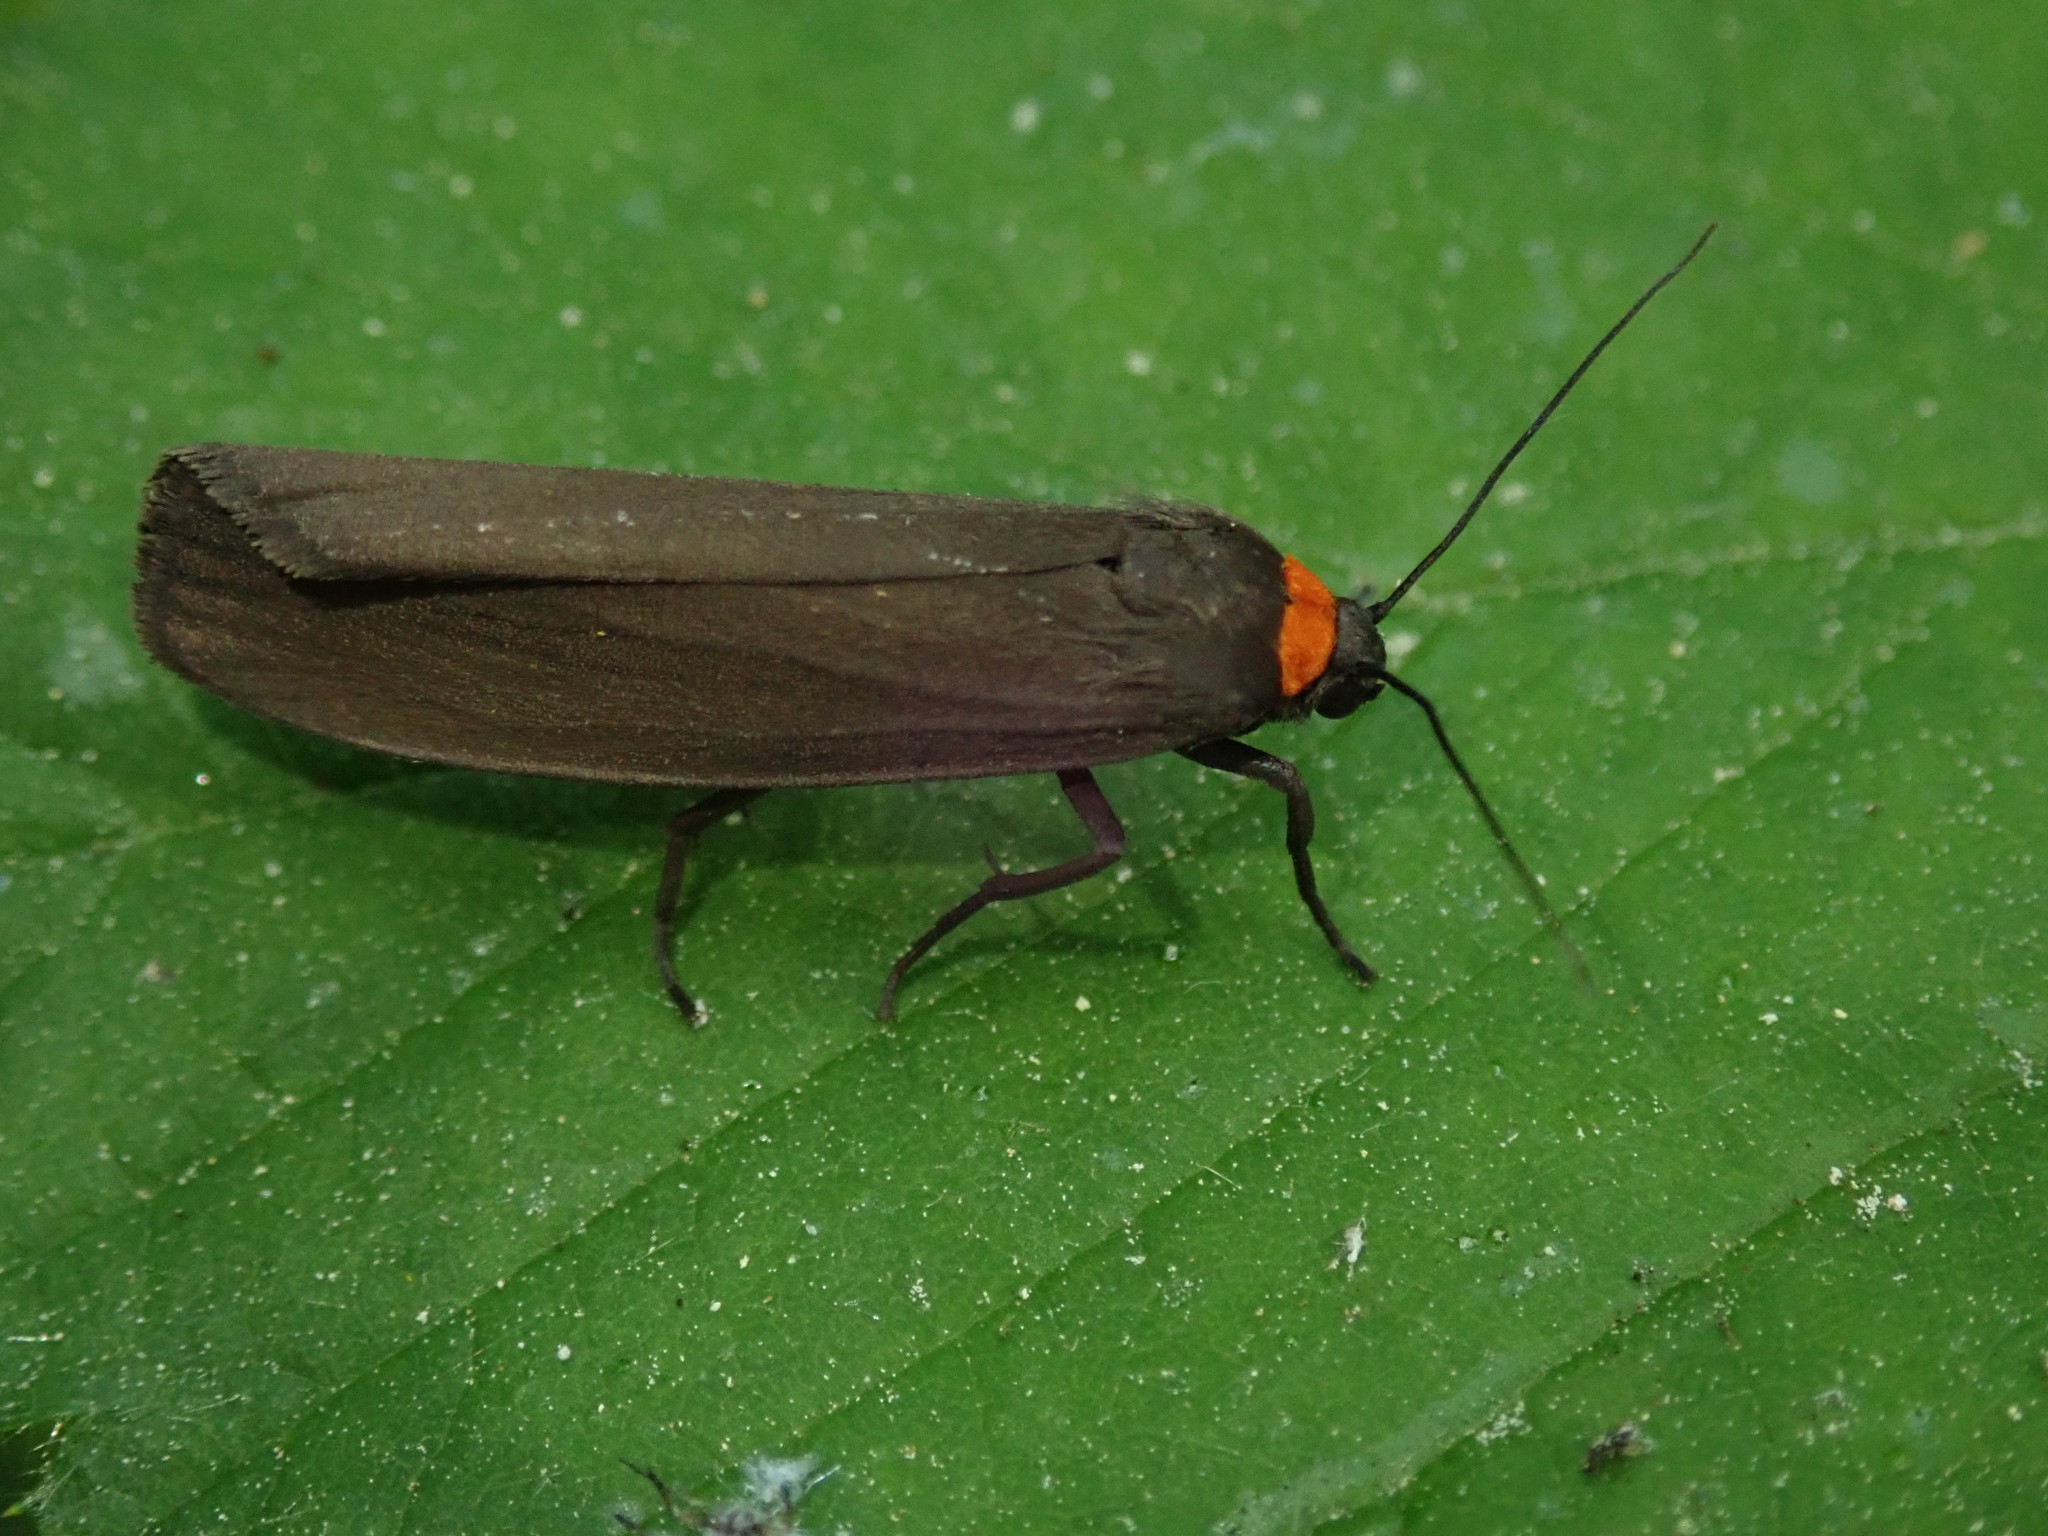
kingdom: Animalia
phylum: Arthropoda
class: Insecta
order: Lepidoptera
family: Erebidae
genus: Atolmis
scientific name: Atolmis rubricollis
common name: Red-necked footman
